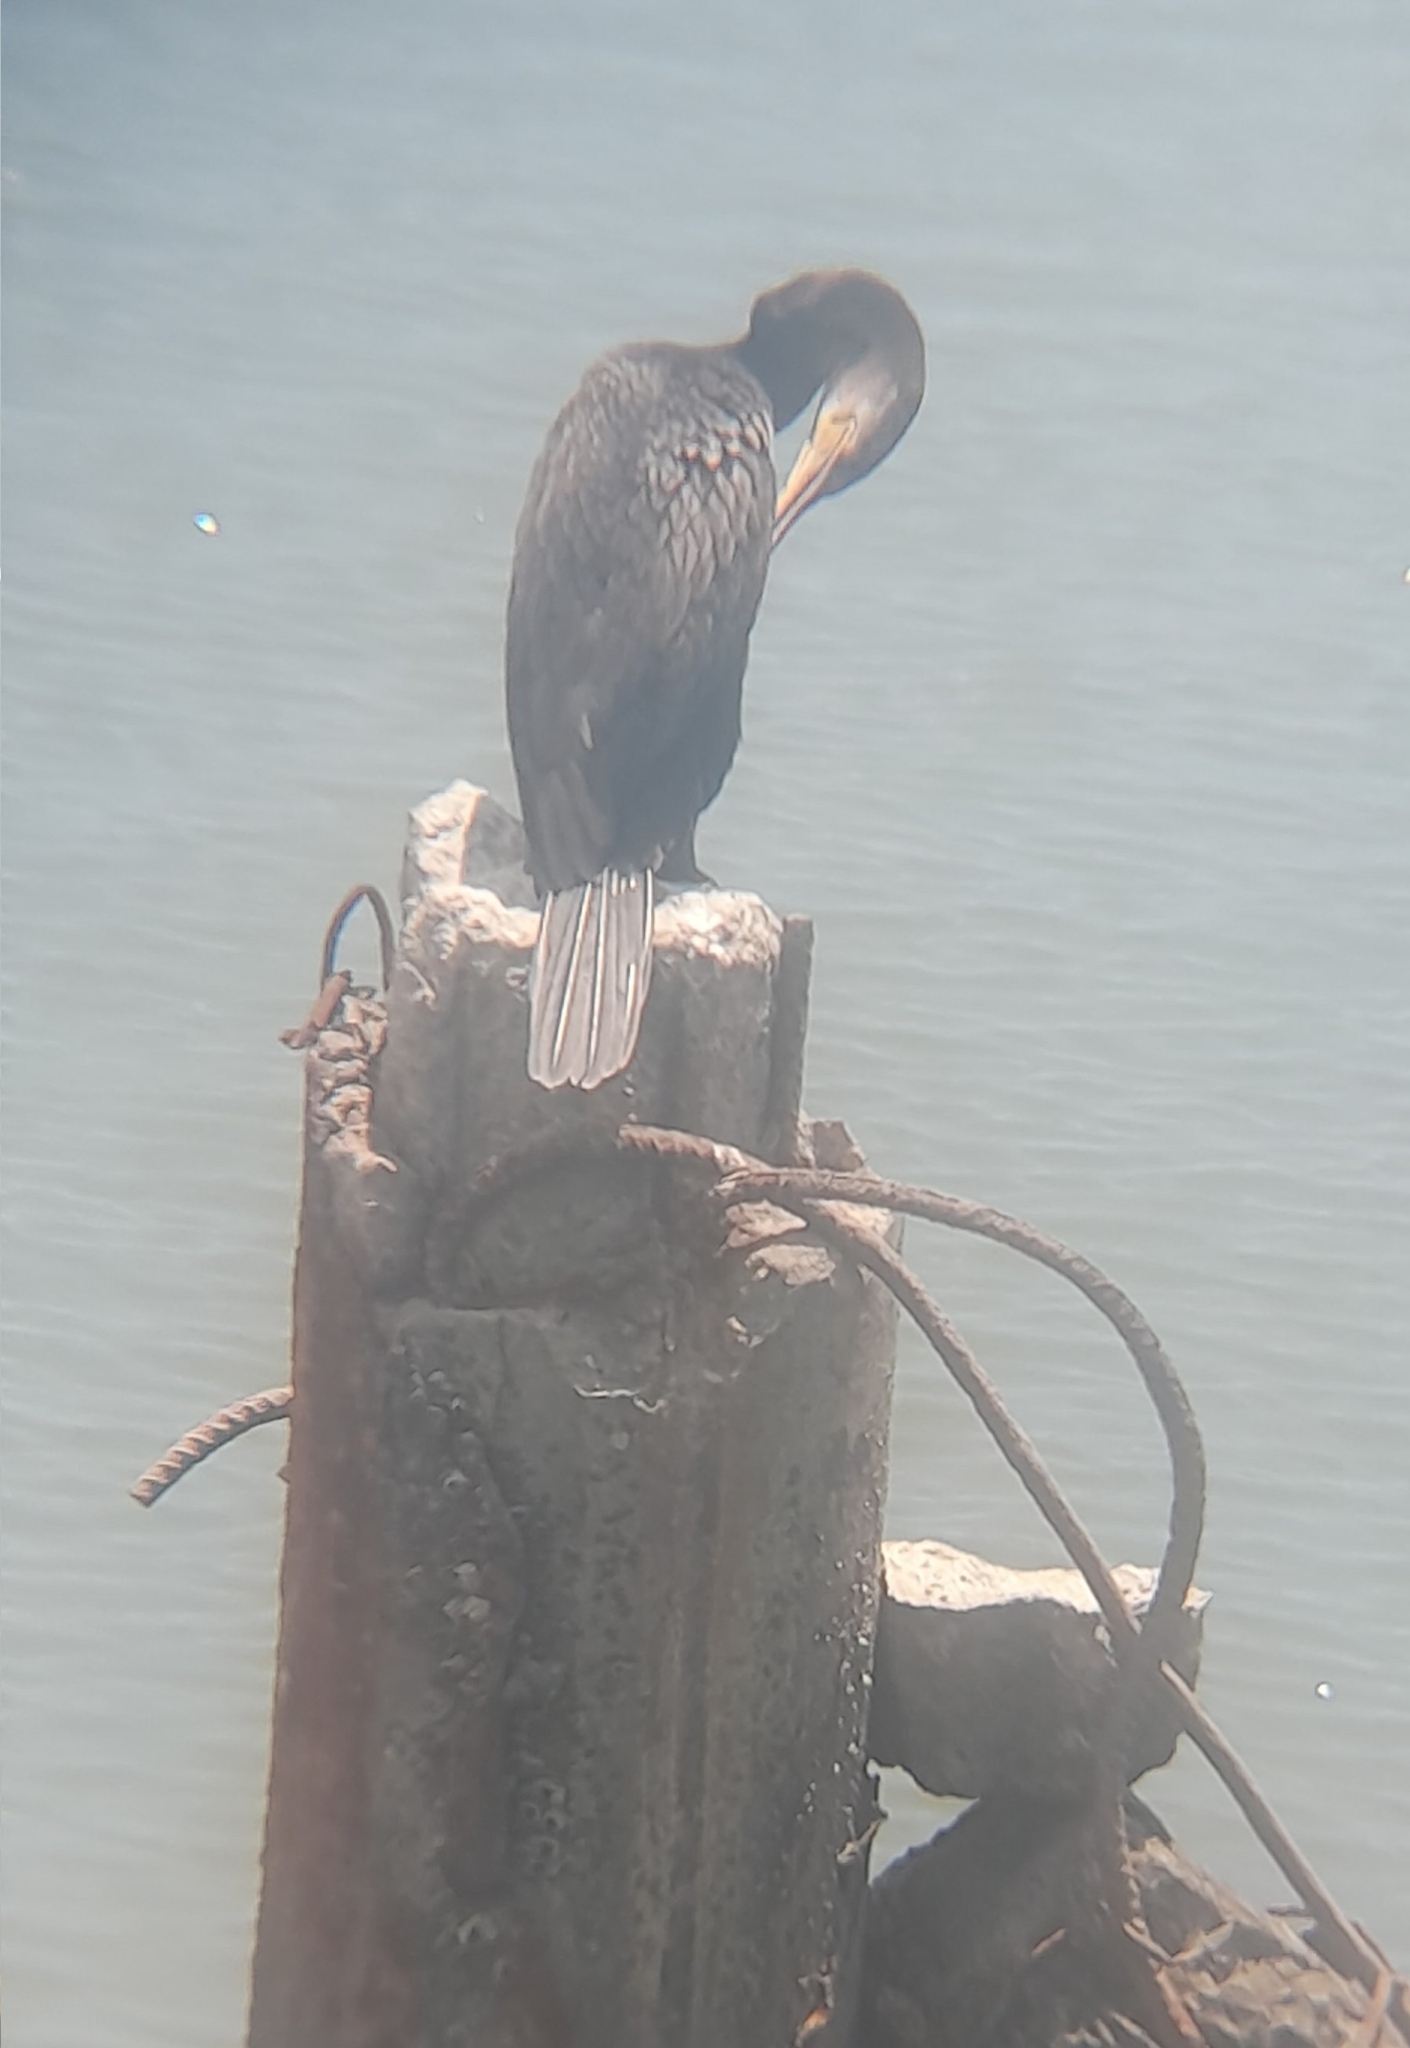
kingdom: Animalia
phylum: Chordata
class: Aves
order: Suliformes
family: Phalacrocoracidae
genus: Phalacrocorax
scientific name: Phalacrocorax brasilianus
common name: Neotropic cormorant
